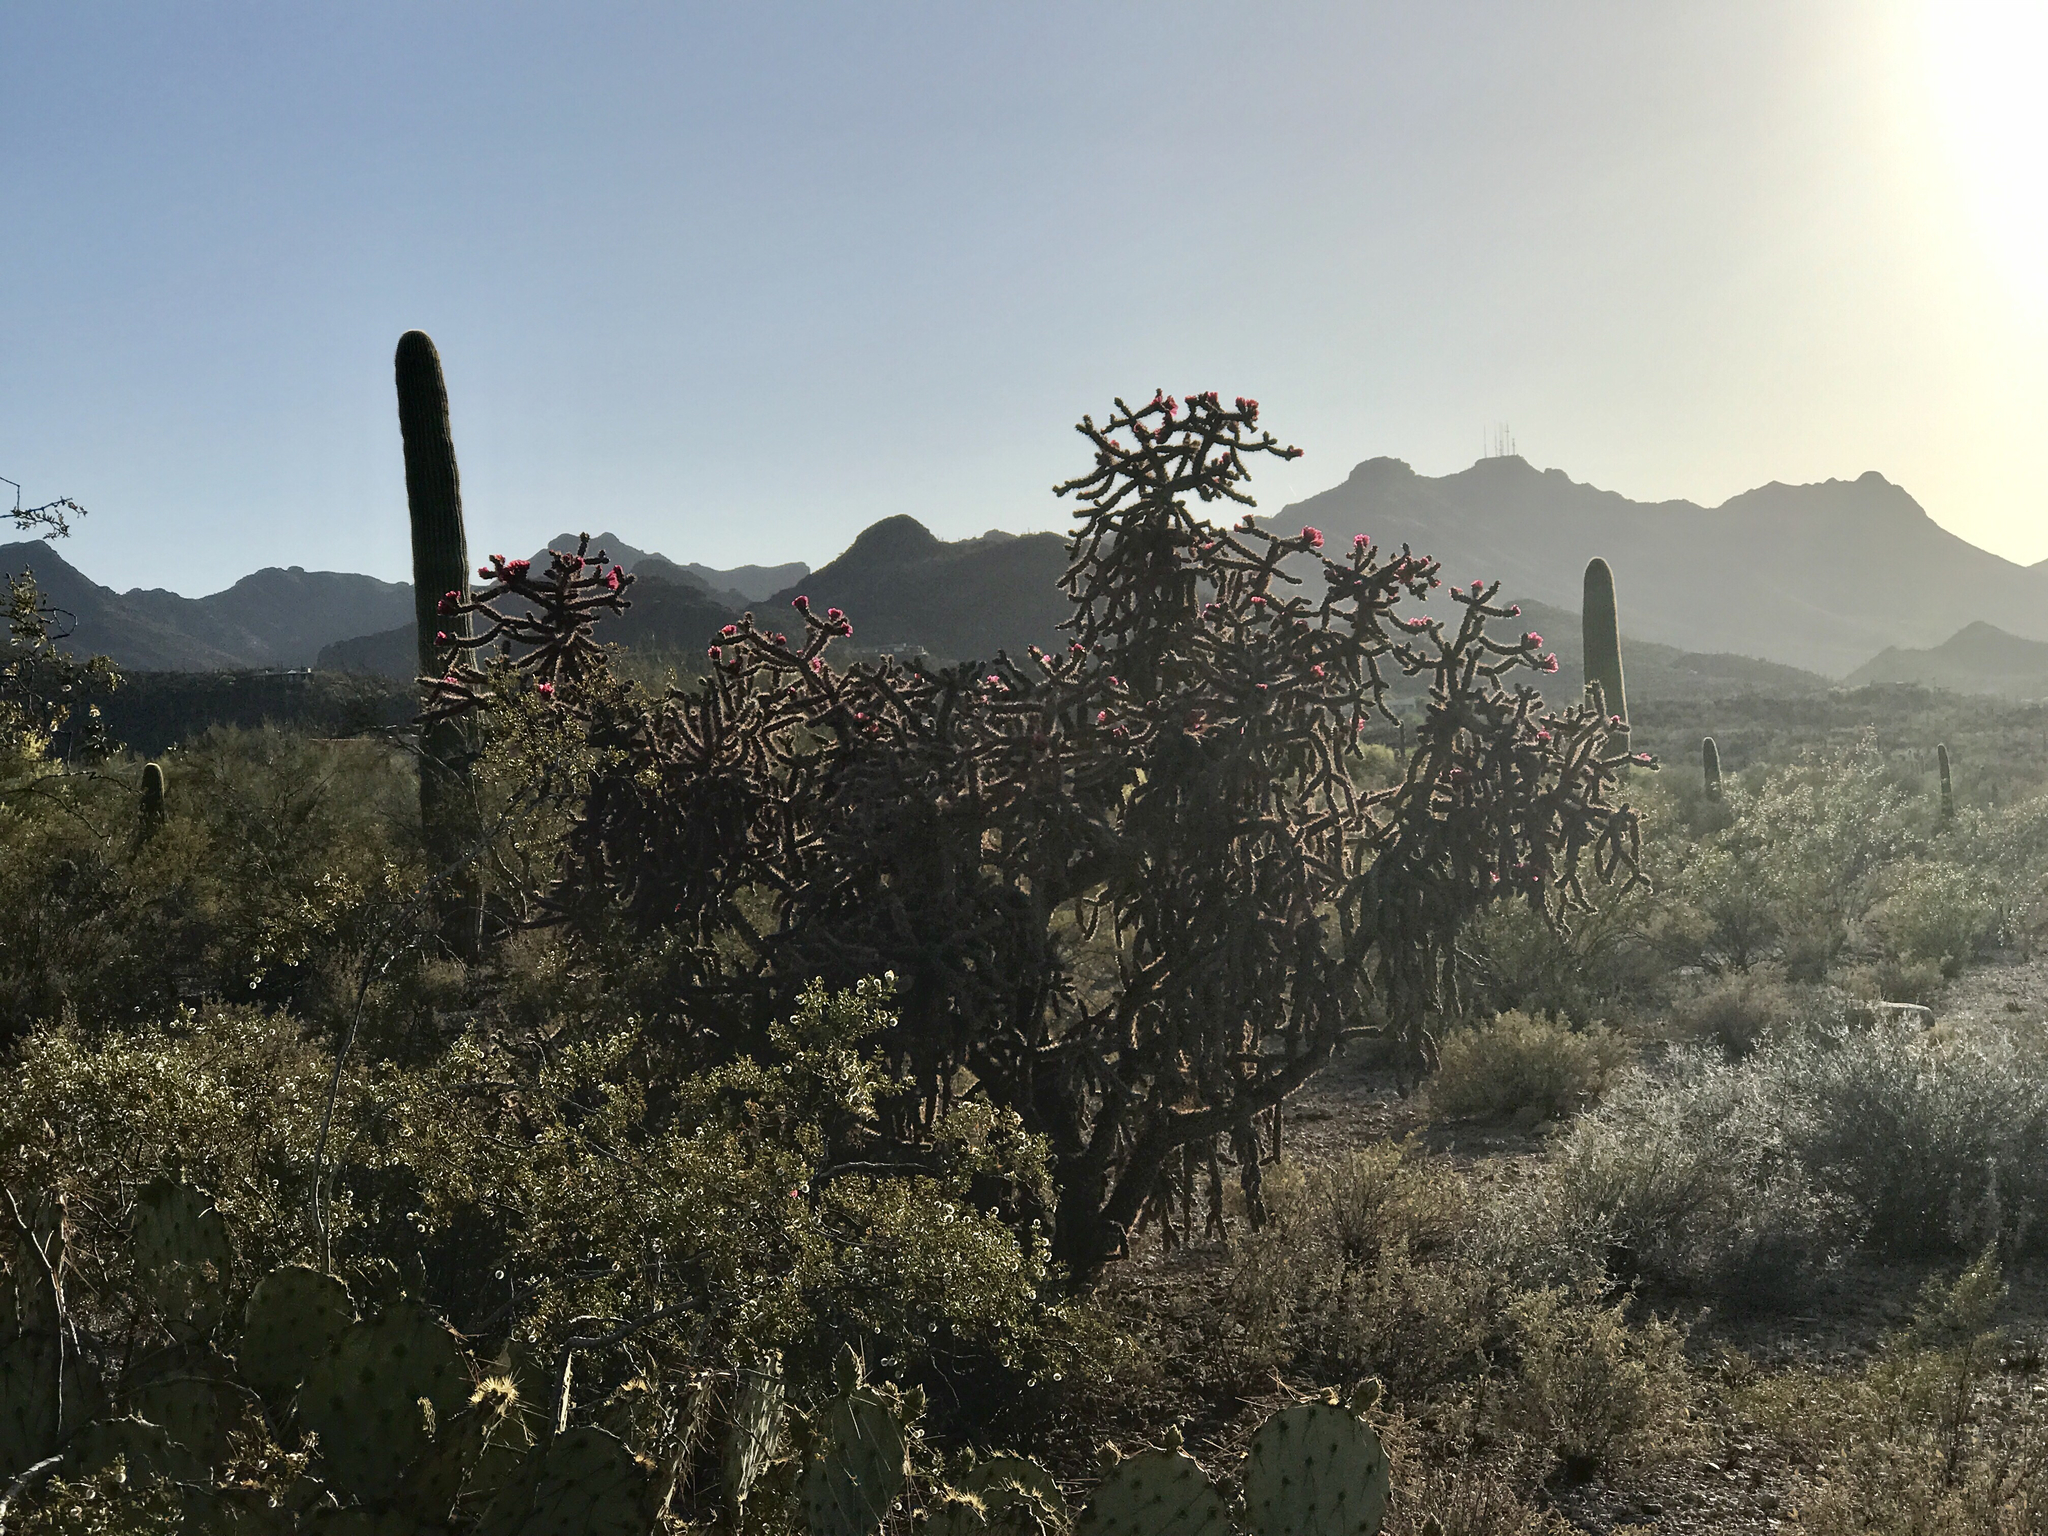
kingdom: Plantae
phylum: Tracheophyta
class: Magnoliopsida
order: Caryophyllales
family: Cactaceae
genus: Cylindropuntia
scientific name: Cylindropuntia thurberi
